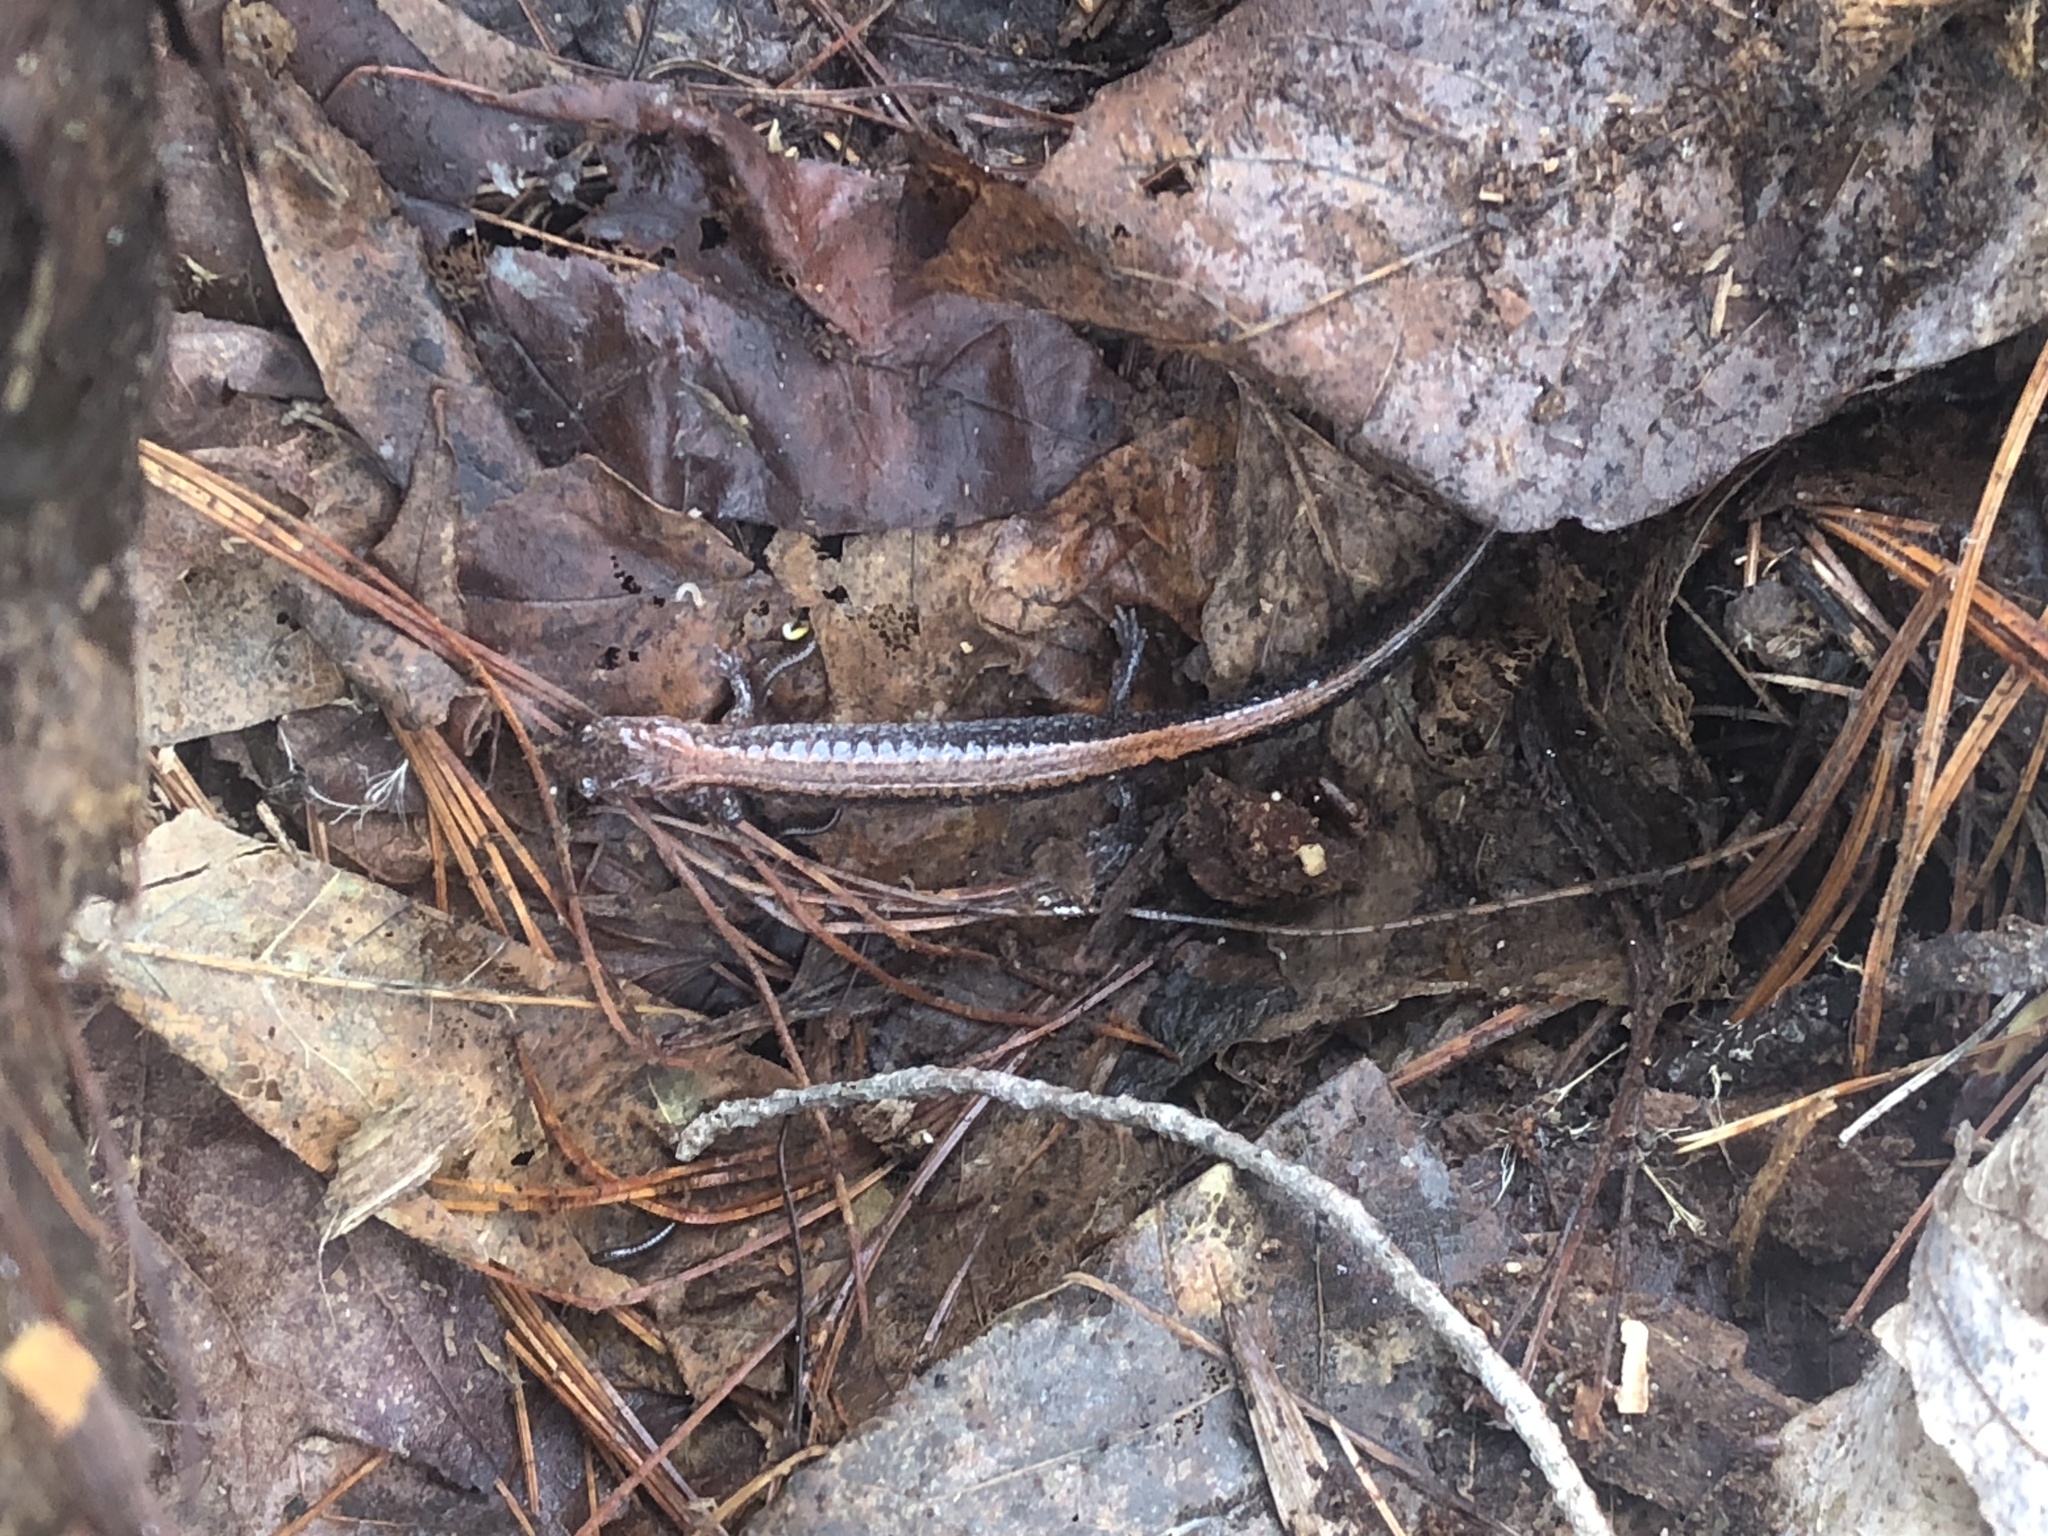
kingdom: Animalia
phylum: Chordata
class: Amphibia
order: Caudata
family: Plethodontidae
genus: Plethodon
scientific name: Plethodon cinereus
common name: Redback salamander
